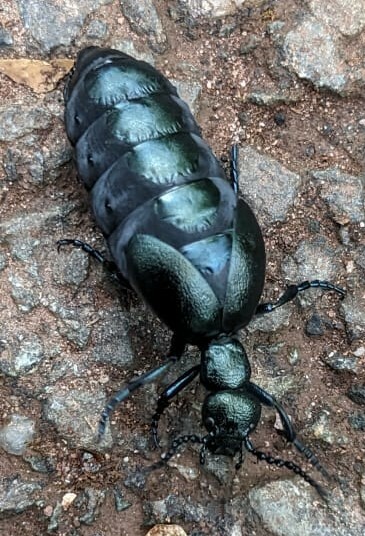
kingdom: Animalia
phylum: Arthropoda
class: Insecta
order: Coleoptera
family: Meloidae
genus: Meloe
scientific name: Meloe violaceus
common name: Violet oil-beetle
